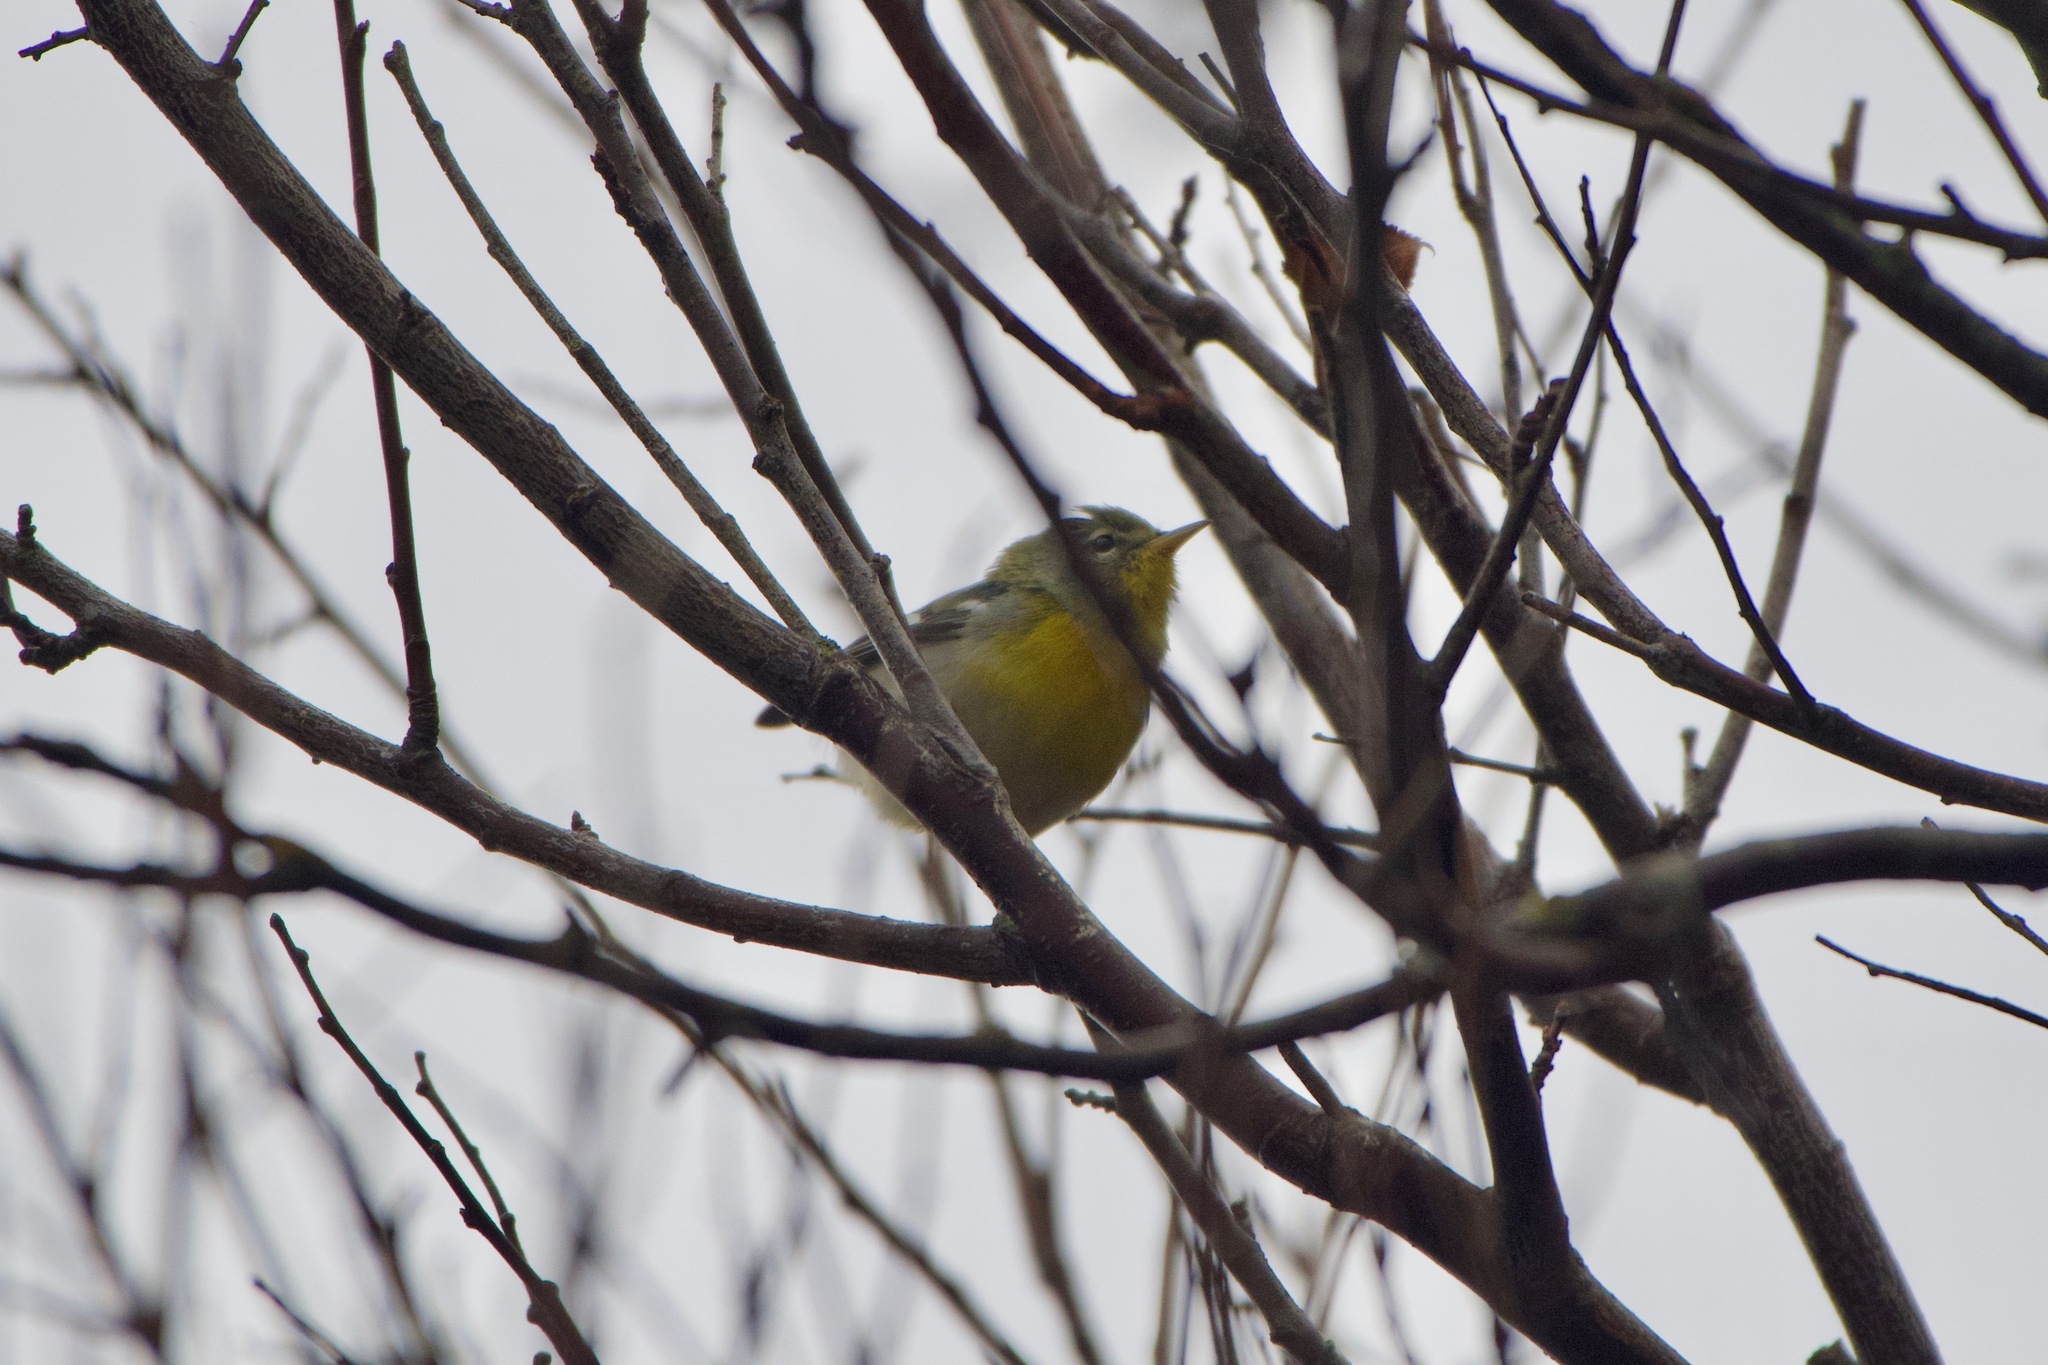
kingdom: Animalia
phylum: Chordata
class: Aves
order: Passeriformes
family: Parulidae
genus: Setophaga
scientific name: Setophaga americana
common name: Northern parula
